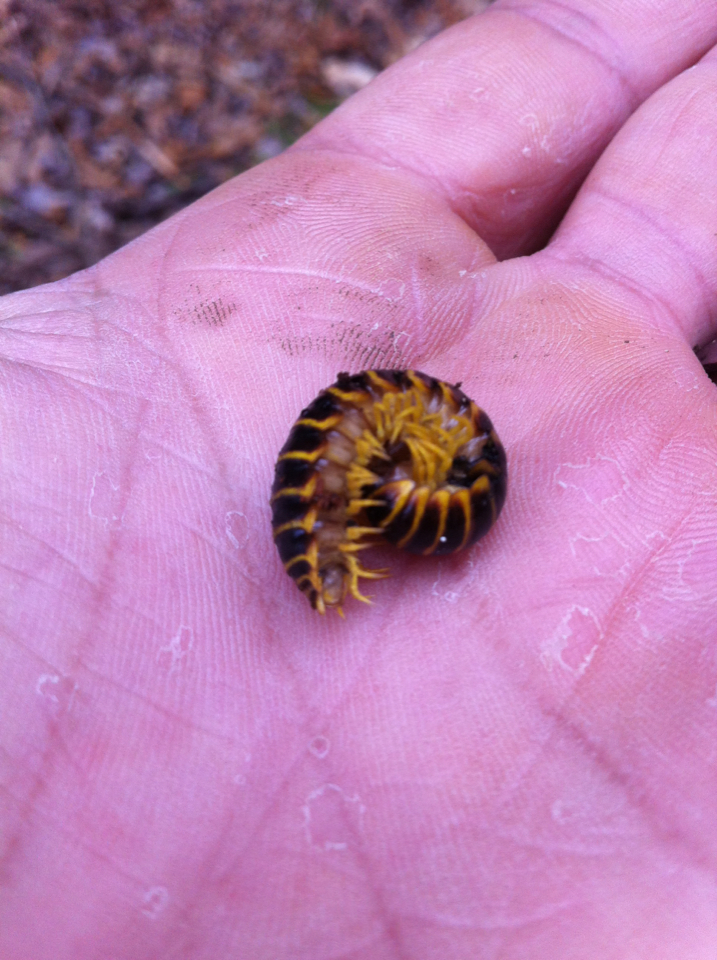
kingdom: Animalia
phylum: Arthropoda
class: Diplopoda
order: Polydesmida
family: Xystodesmidae
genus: Apheloria
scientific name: Apheloria virginiensis
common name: Black-and-gold flat millipede
